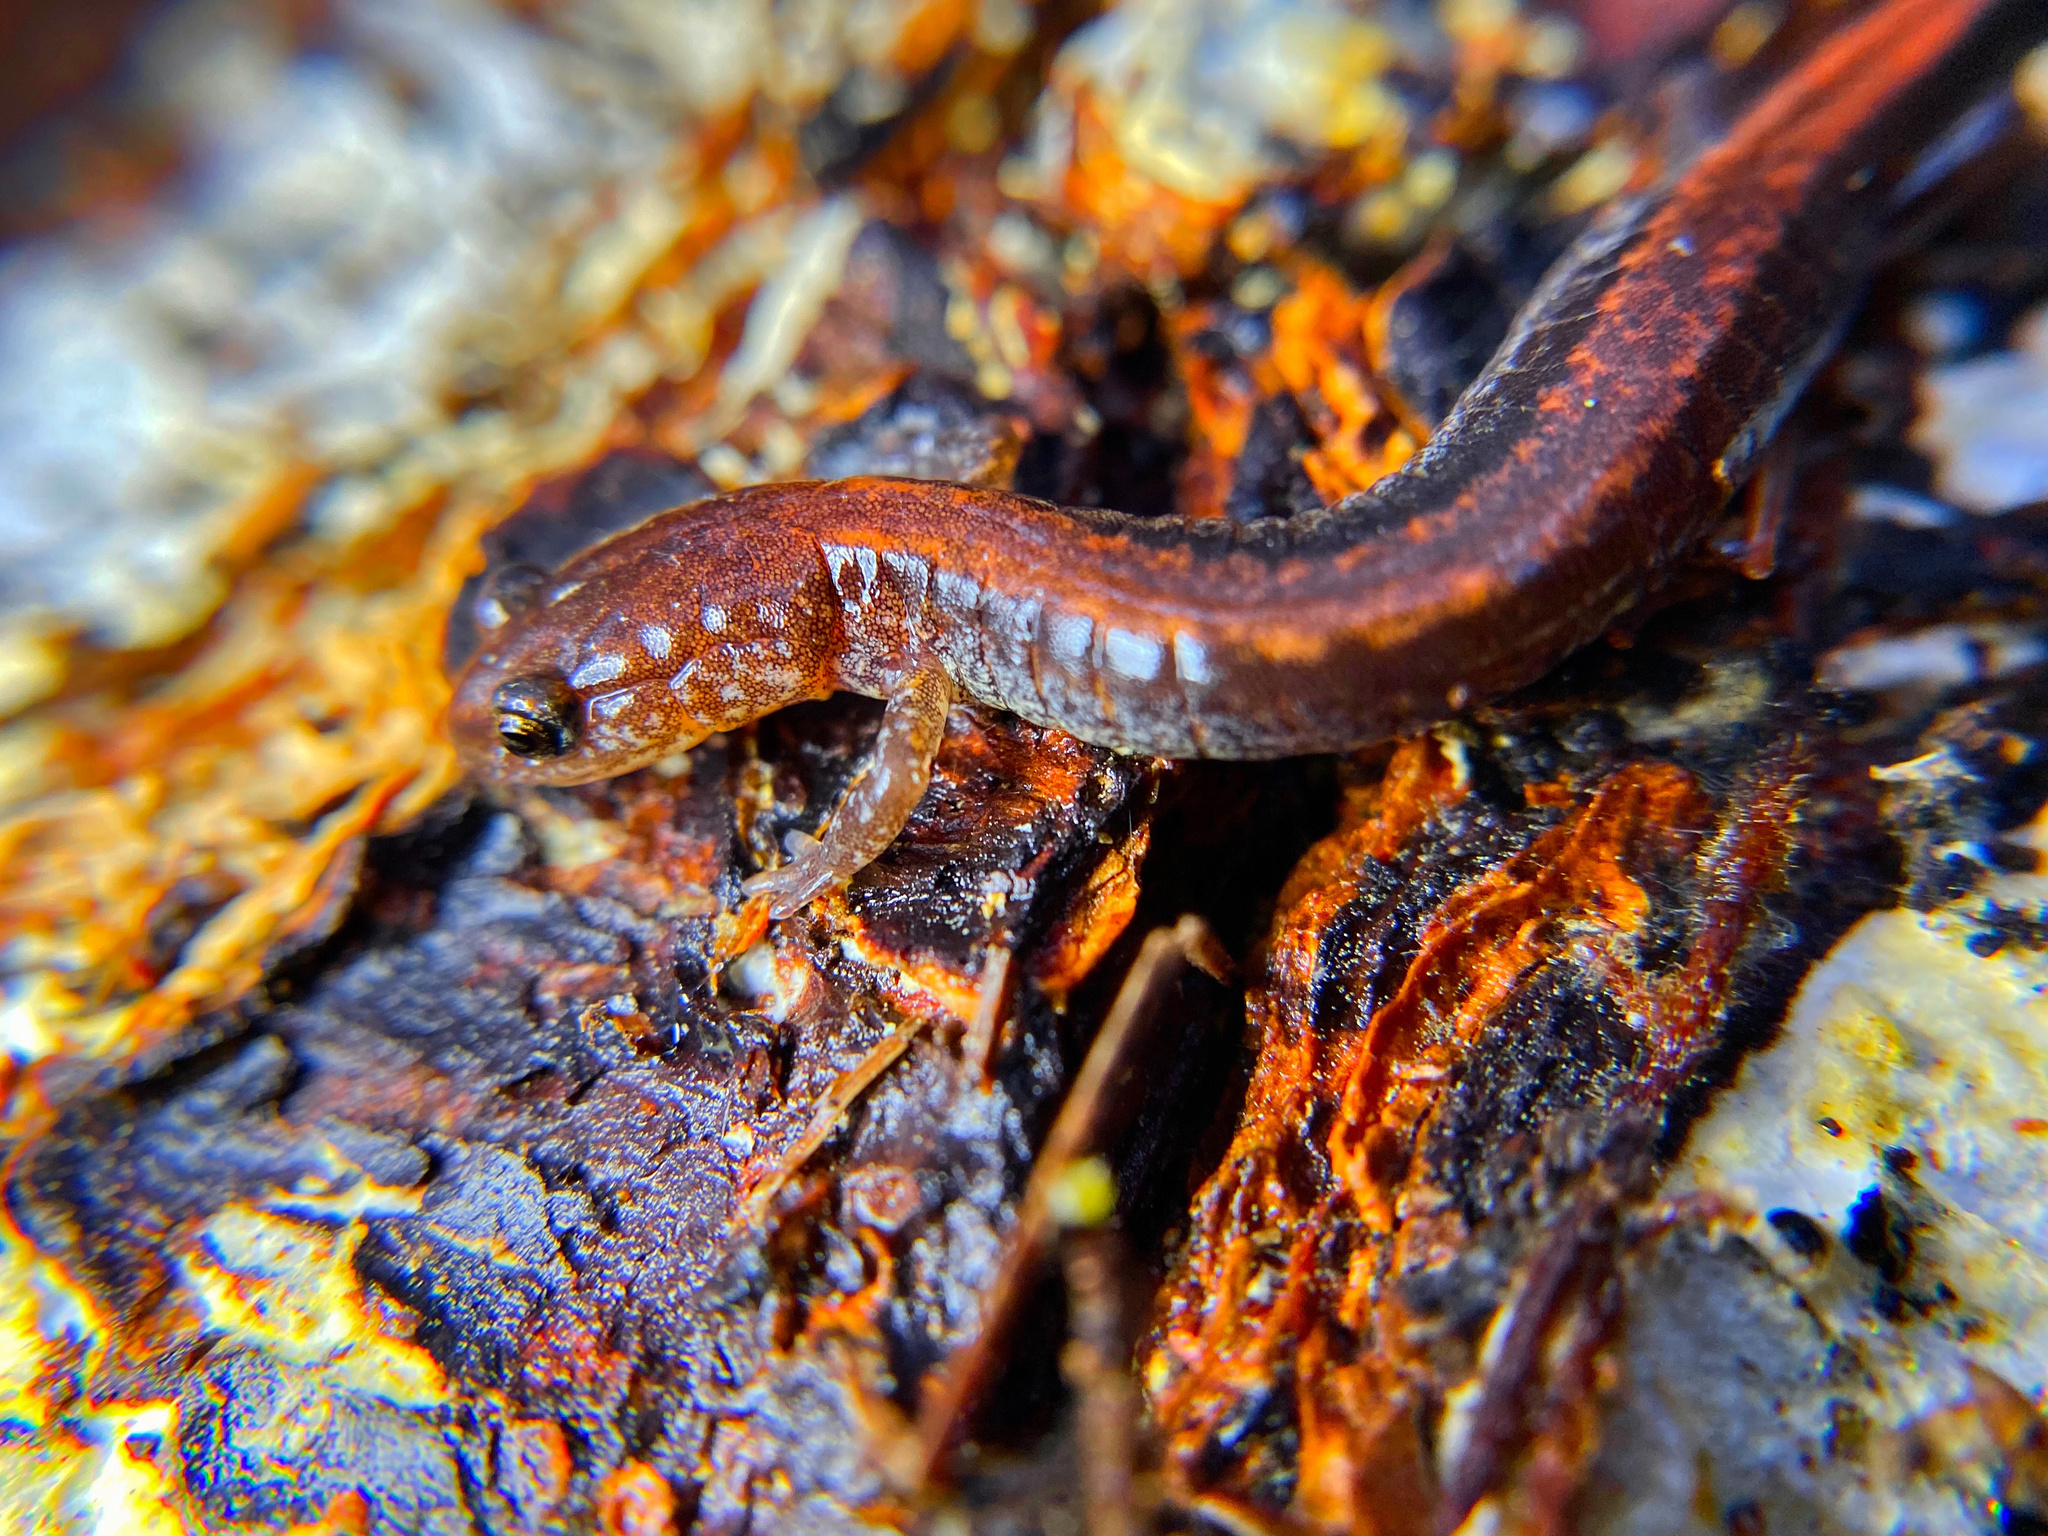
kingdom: Animalia
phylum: Chordata
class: Amphibia
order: Caudata
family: Plethodontidae
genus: Plethodon
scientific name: Plethodon cinereus
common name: Redback salamander
